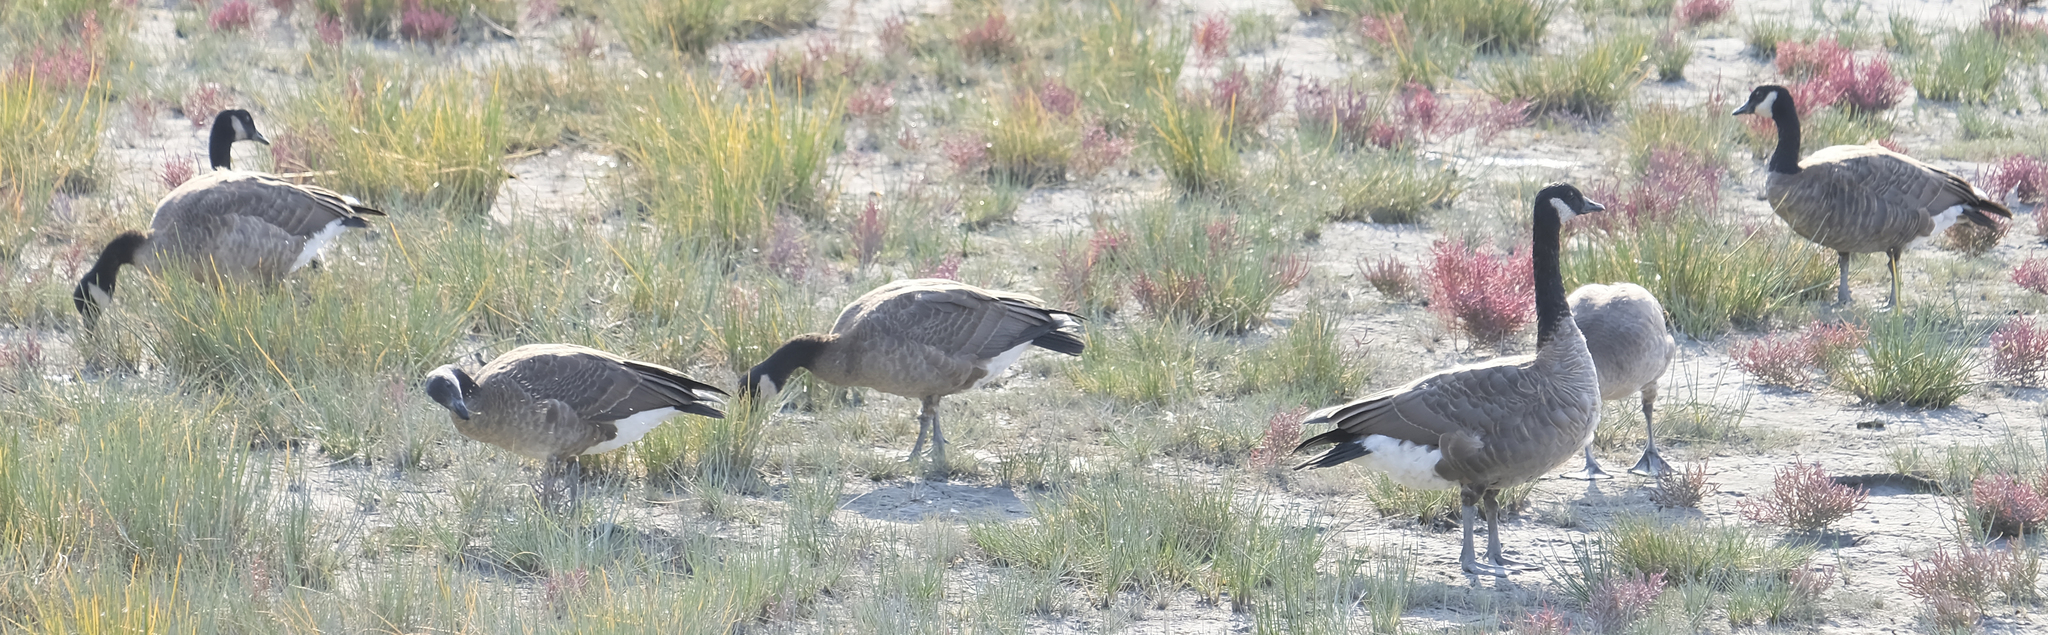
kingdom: Animalia
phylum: Chordata
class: Aves
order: Anseriformes
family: Anatidae
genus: Branta
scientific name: Branta canadensis
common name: Canada goose
